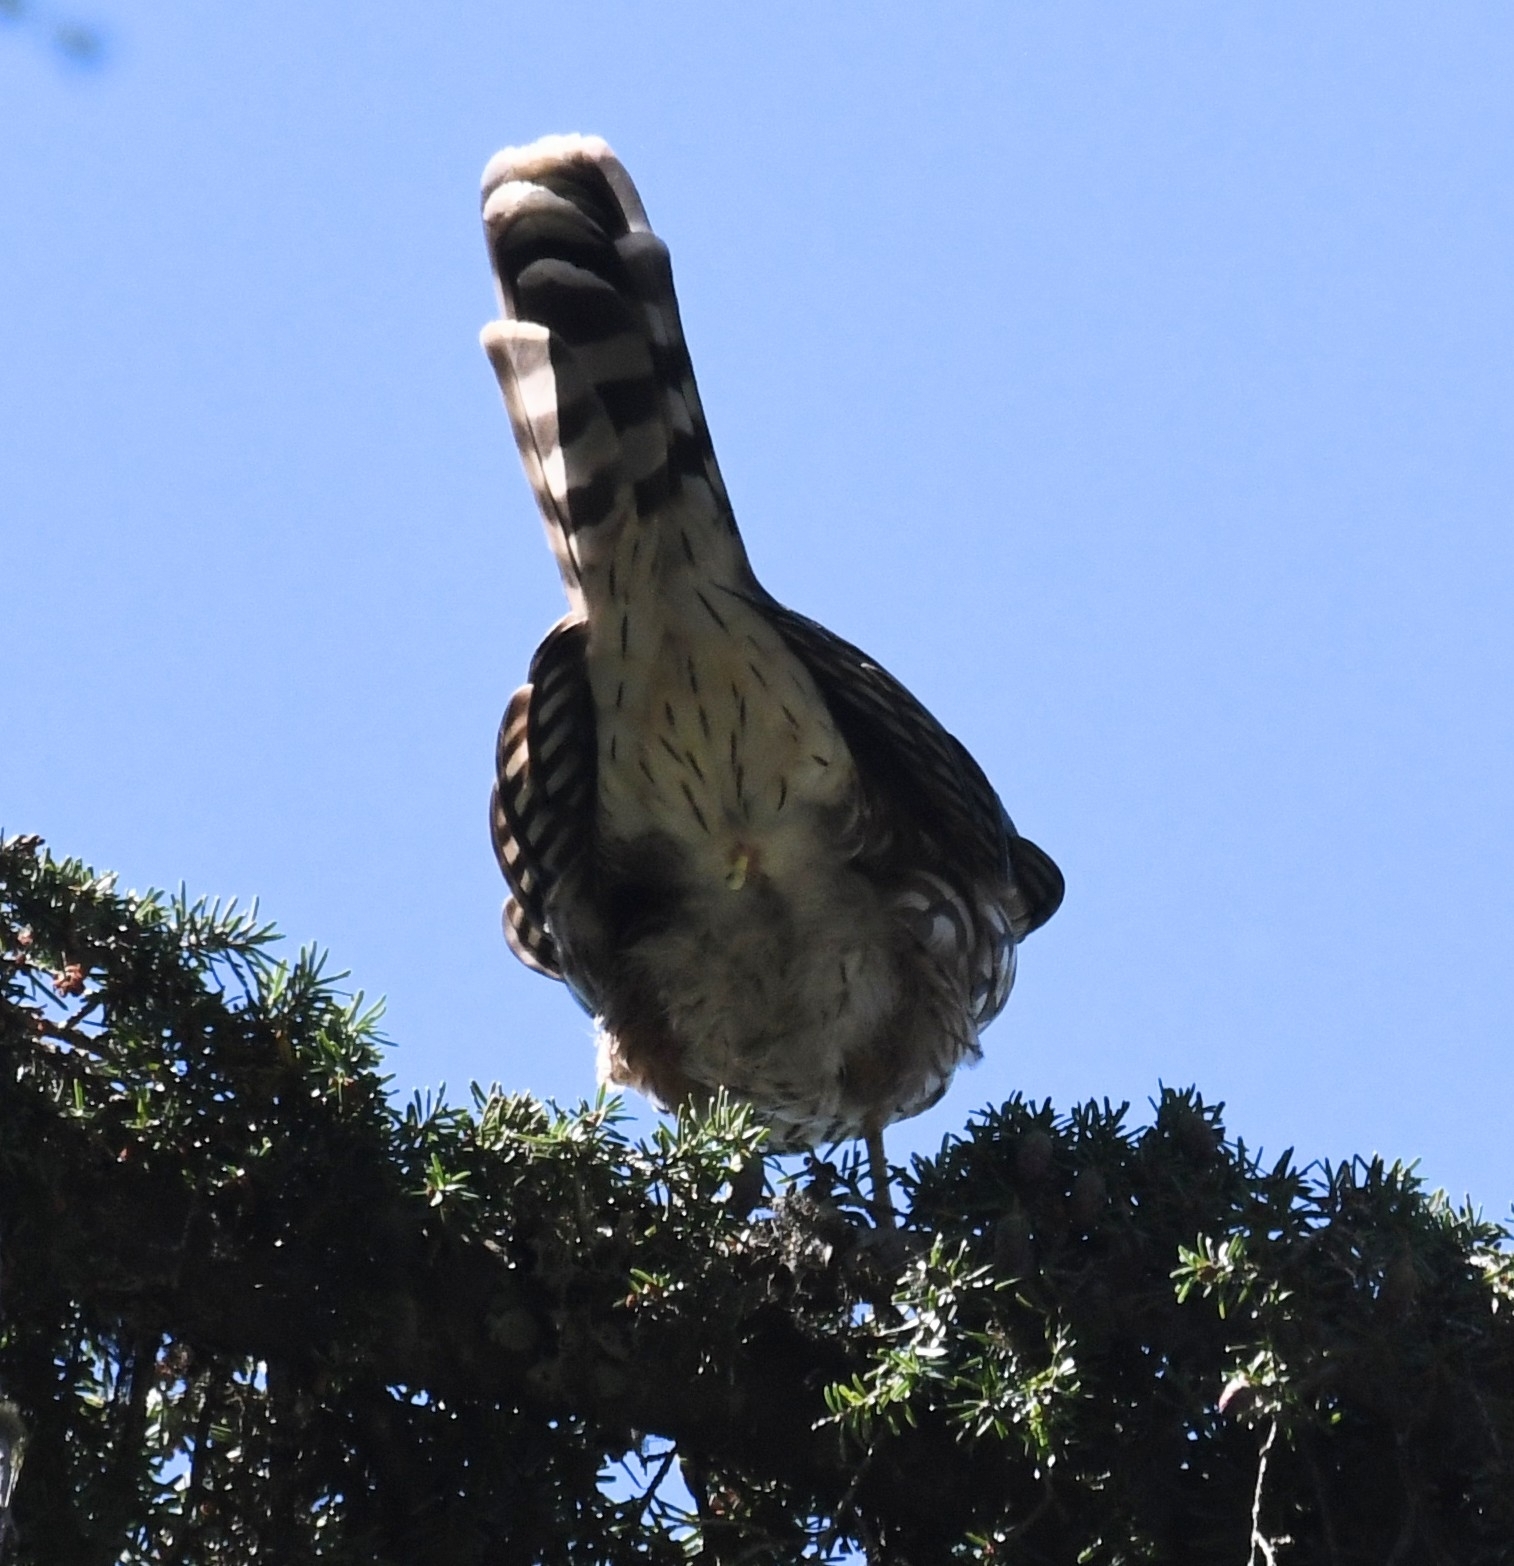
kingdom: Animalia
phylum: Chordata
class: Aves
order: Accipitriformes
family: Accipitridae
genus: Accipiter
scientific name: Accipiter cooperii
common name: Cooper's hawk
